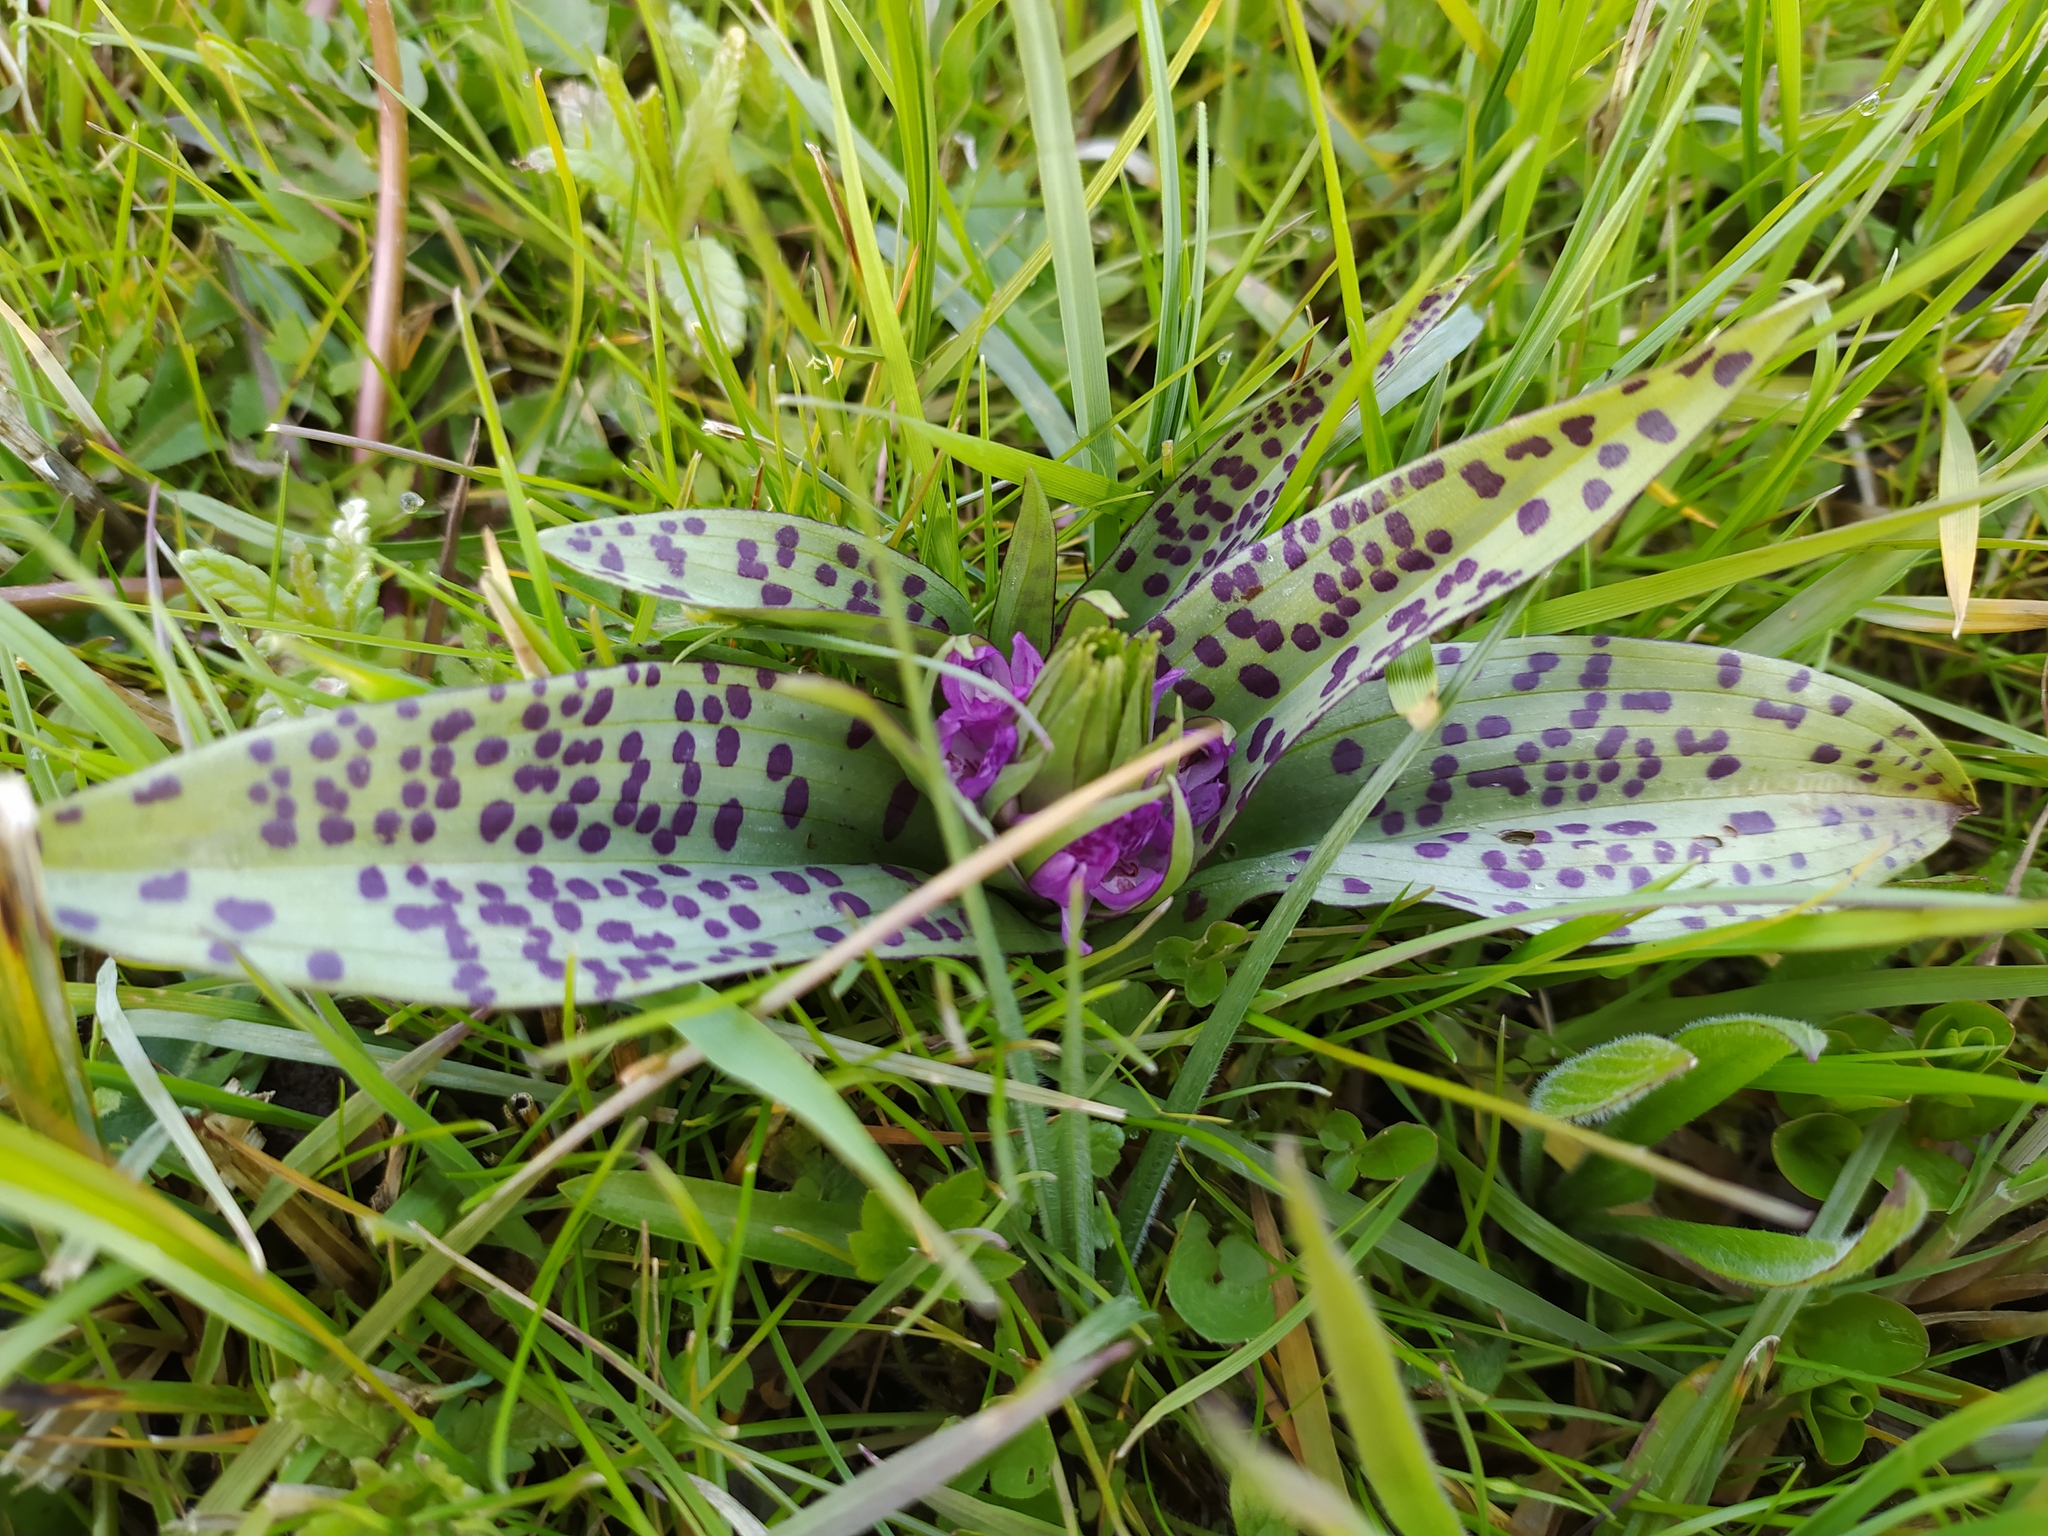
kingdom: Plantae
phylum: Tracheophyta
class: Liliopsida
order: Asparagales
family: Orchidaceae
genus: Dactylorhiza
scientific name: Dactylorhiza majalis
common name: Marsh orchid
